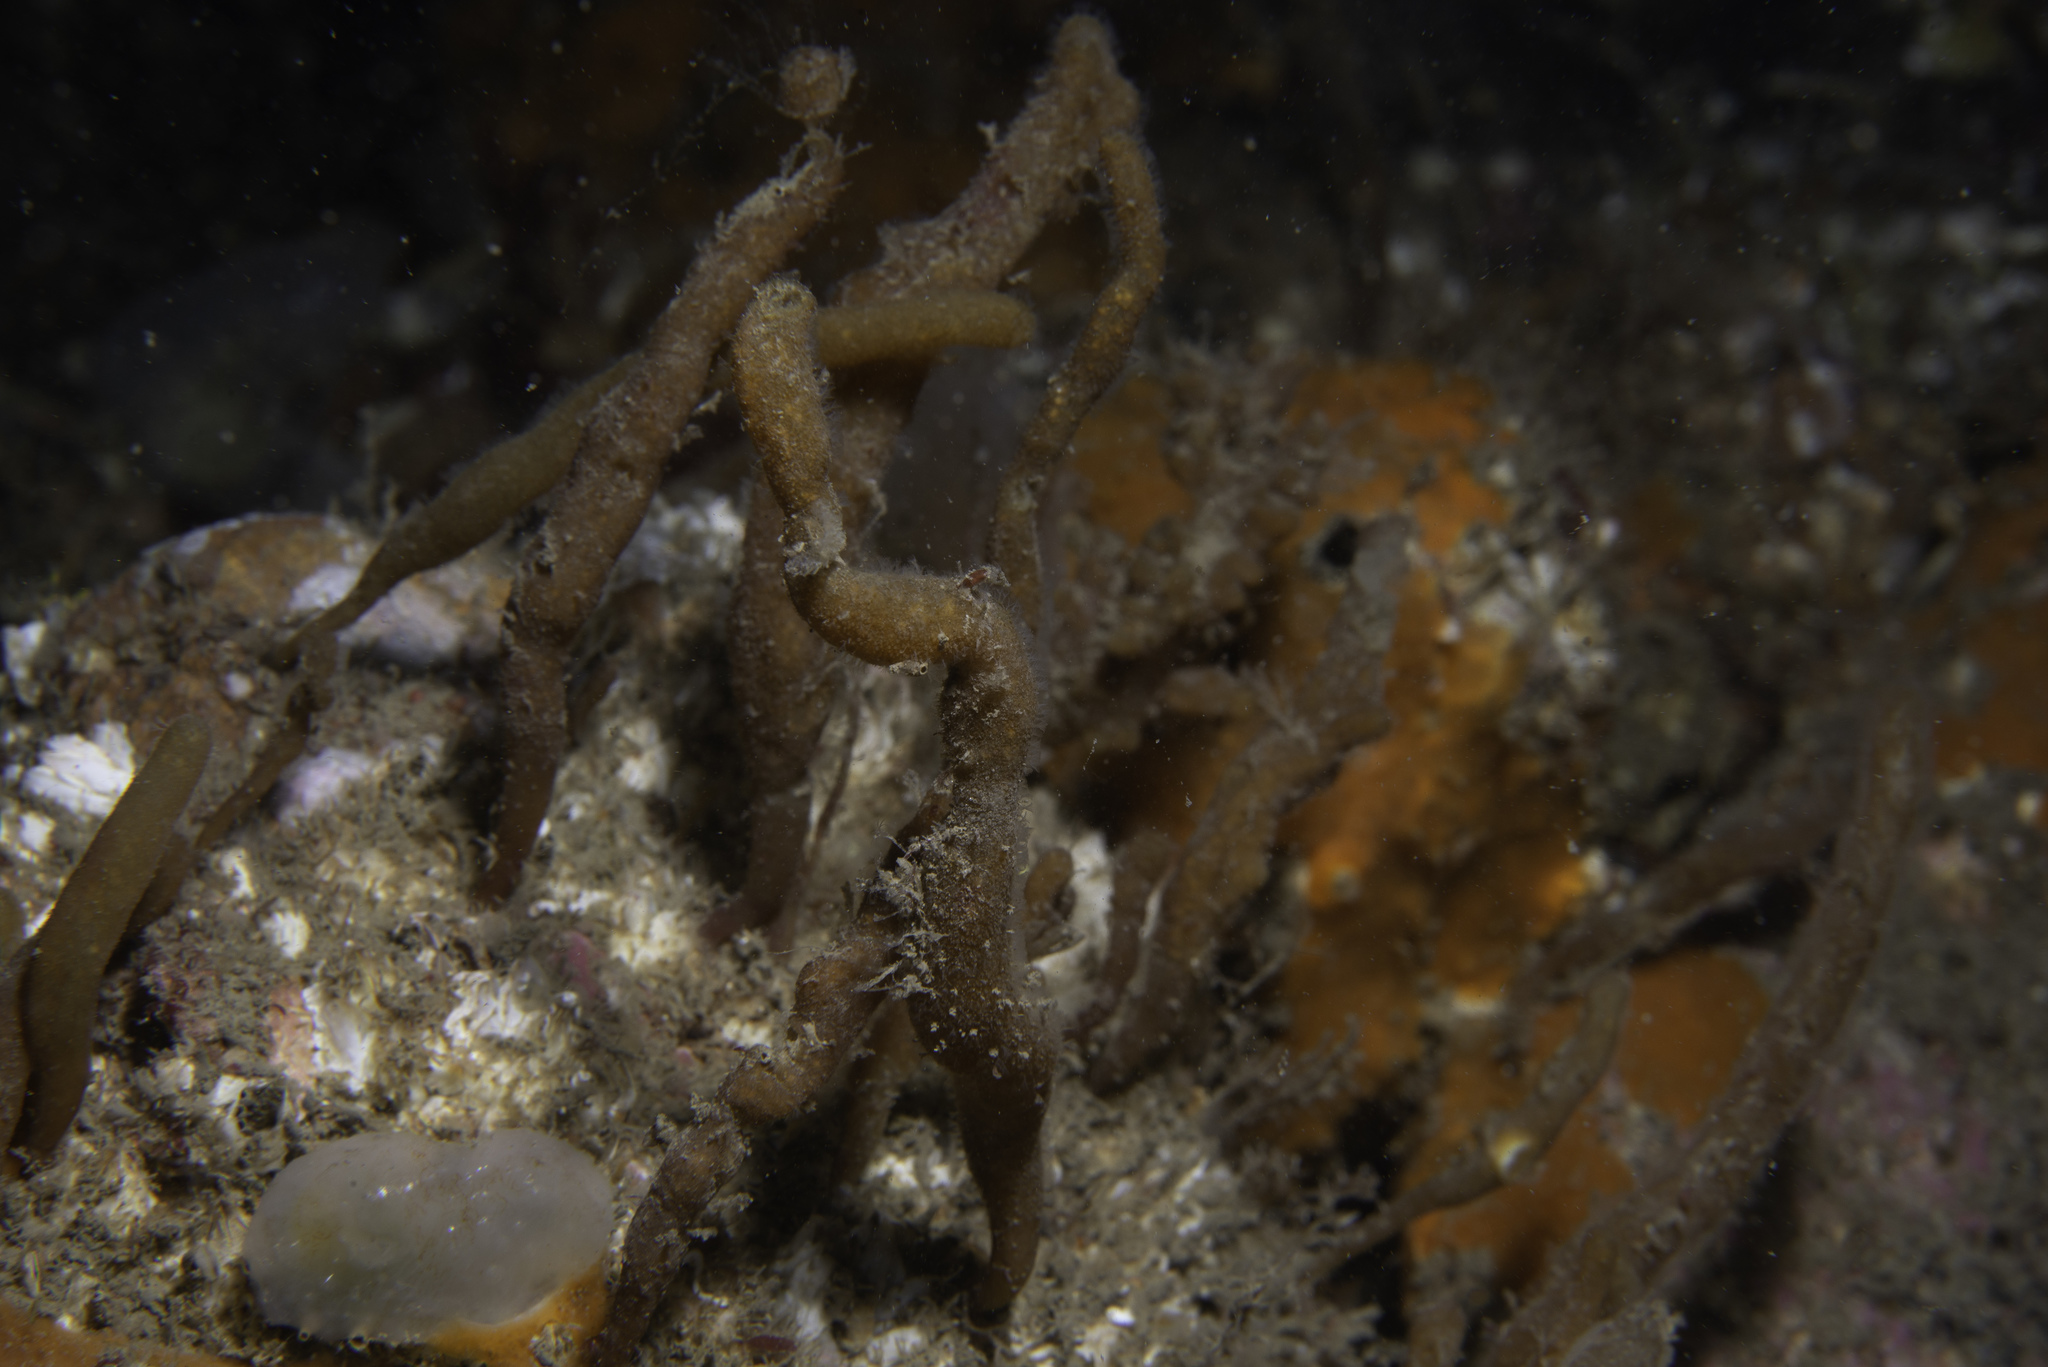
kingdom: Animalia
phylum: Bryozoa
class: Gymnolaemata
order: Ctenostomatida
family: Alcyonidiidae
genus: Alcyonidium
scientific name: Alcyonidium diaphanum
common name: Sea chervil
